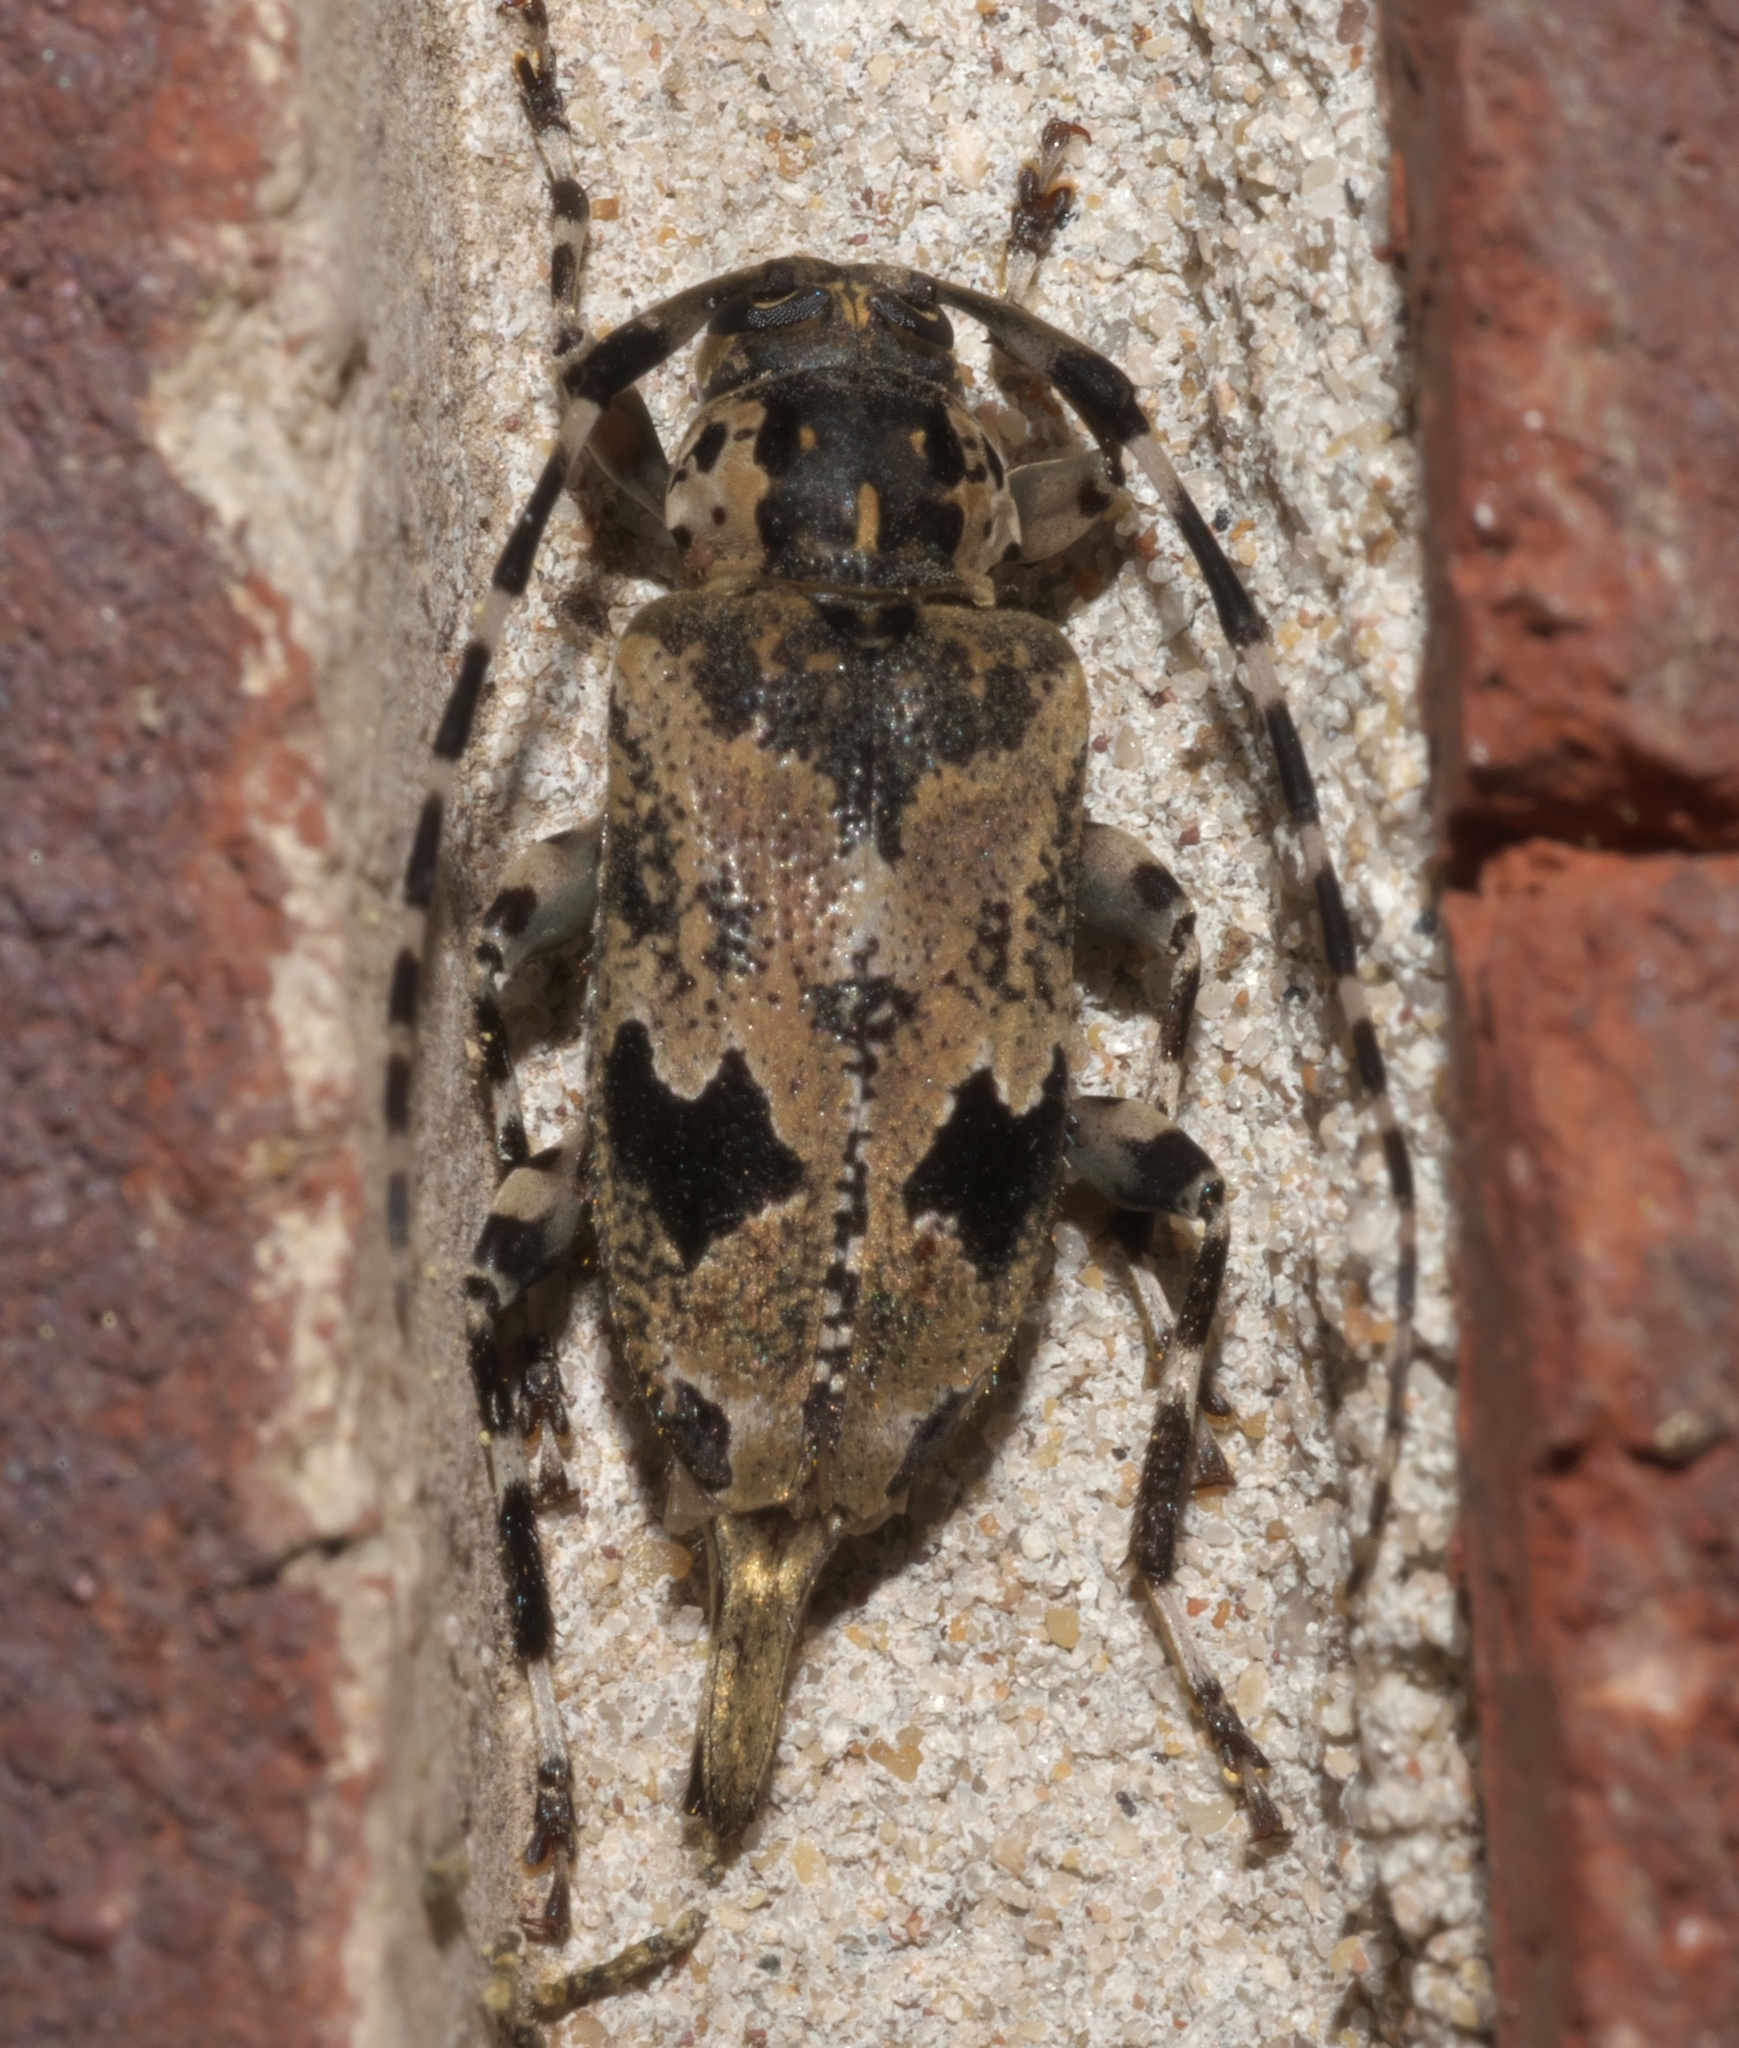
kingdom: Animalia
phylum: Arthropoda
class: Insecta
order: Coleoptera
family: Cerambycidae
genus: Graphisurus
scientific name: Graphisurus triangulifer
